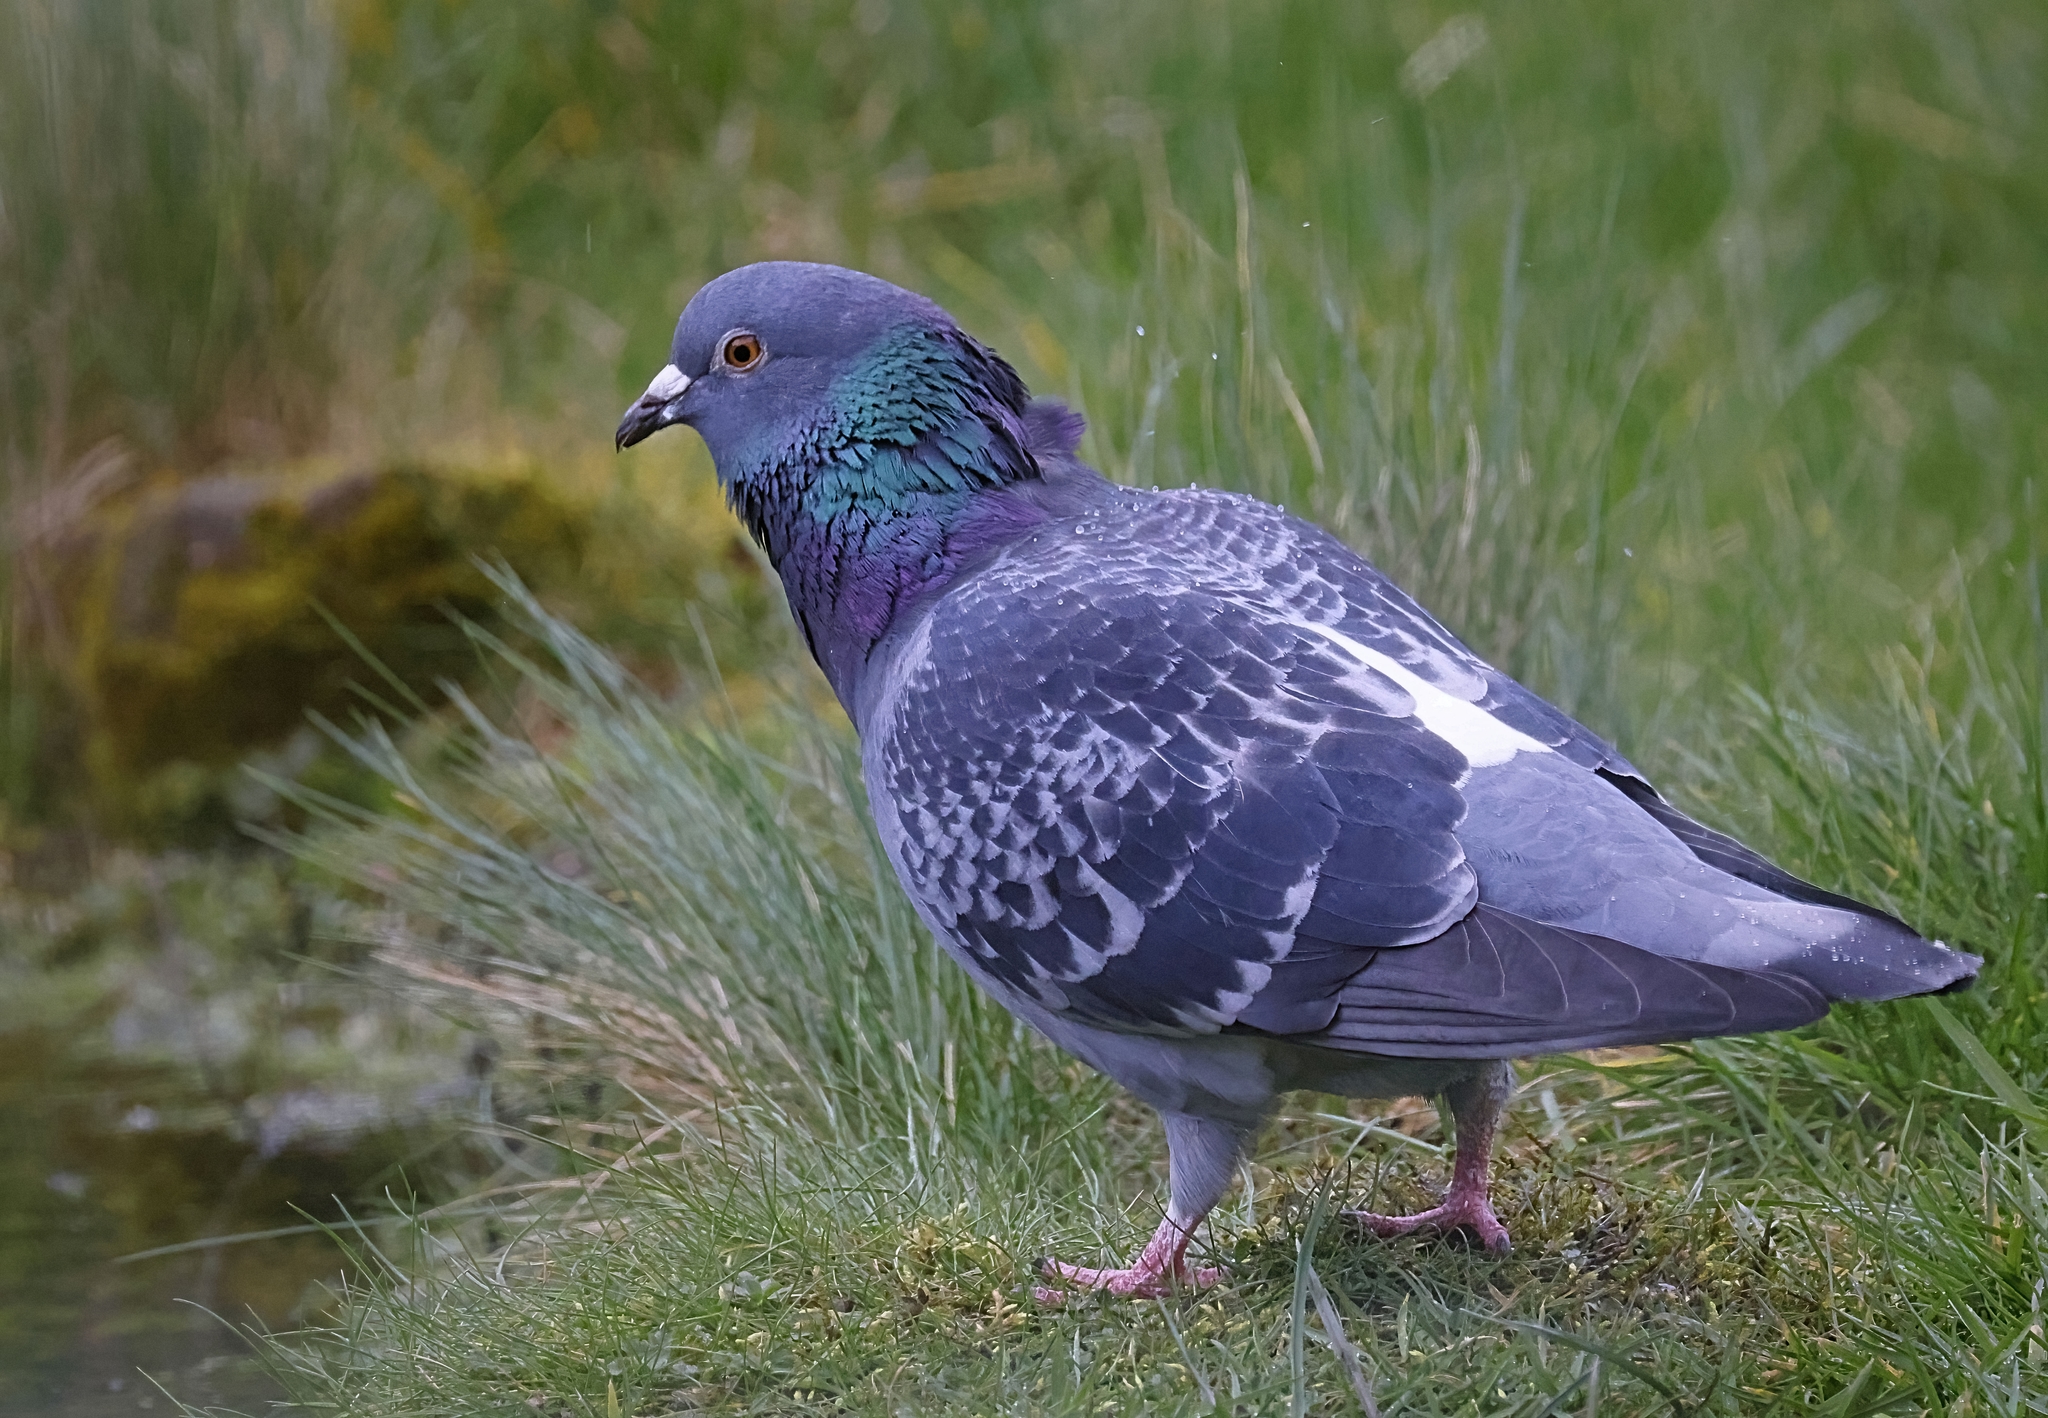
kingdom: Animalia
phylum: Chordata
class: Aves
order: Columbiformes
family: Columbidae
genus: Columba
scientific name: Columba livia
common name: Rock pigeon
